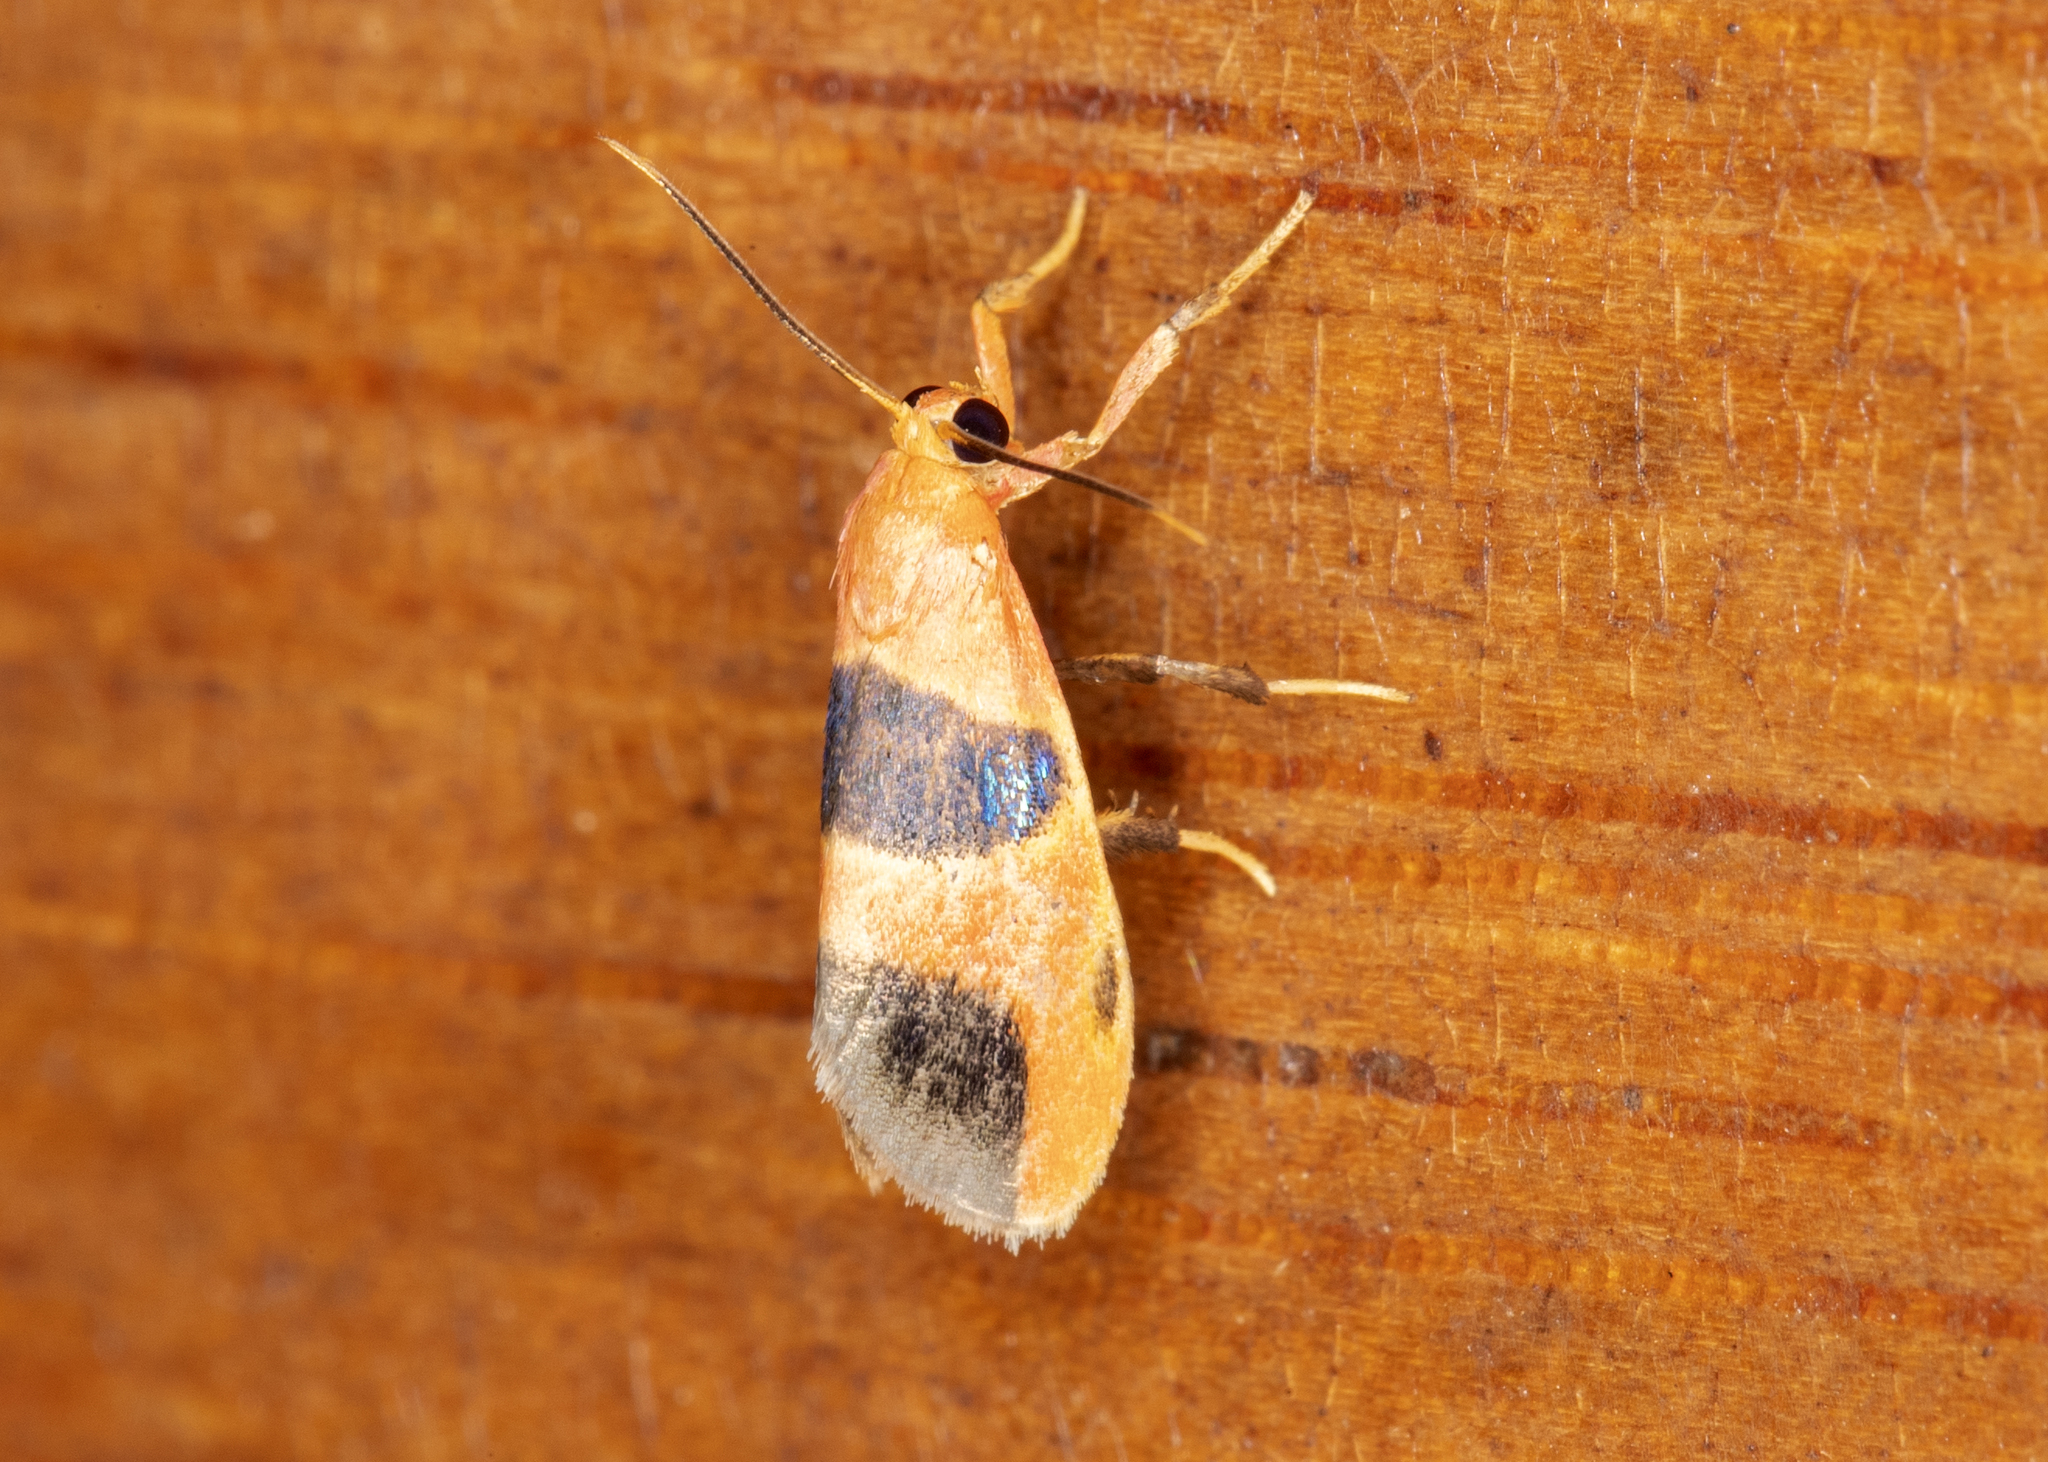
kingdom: Animalia
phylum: Arthropoda
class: Insecta
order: Lepidoptera
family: Erebidae
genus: Talara
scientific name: Talara megaspila
